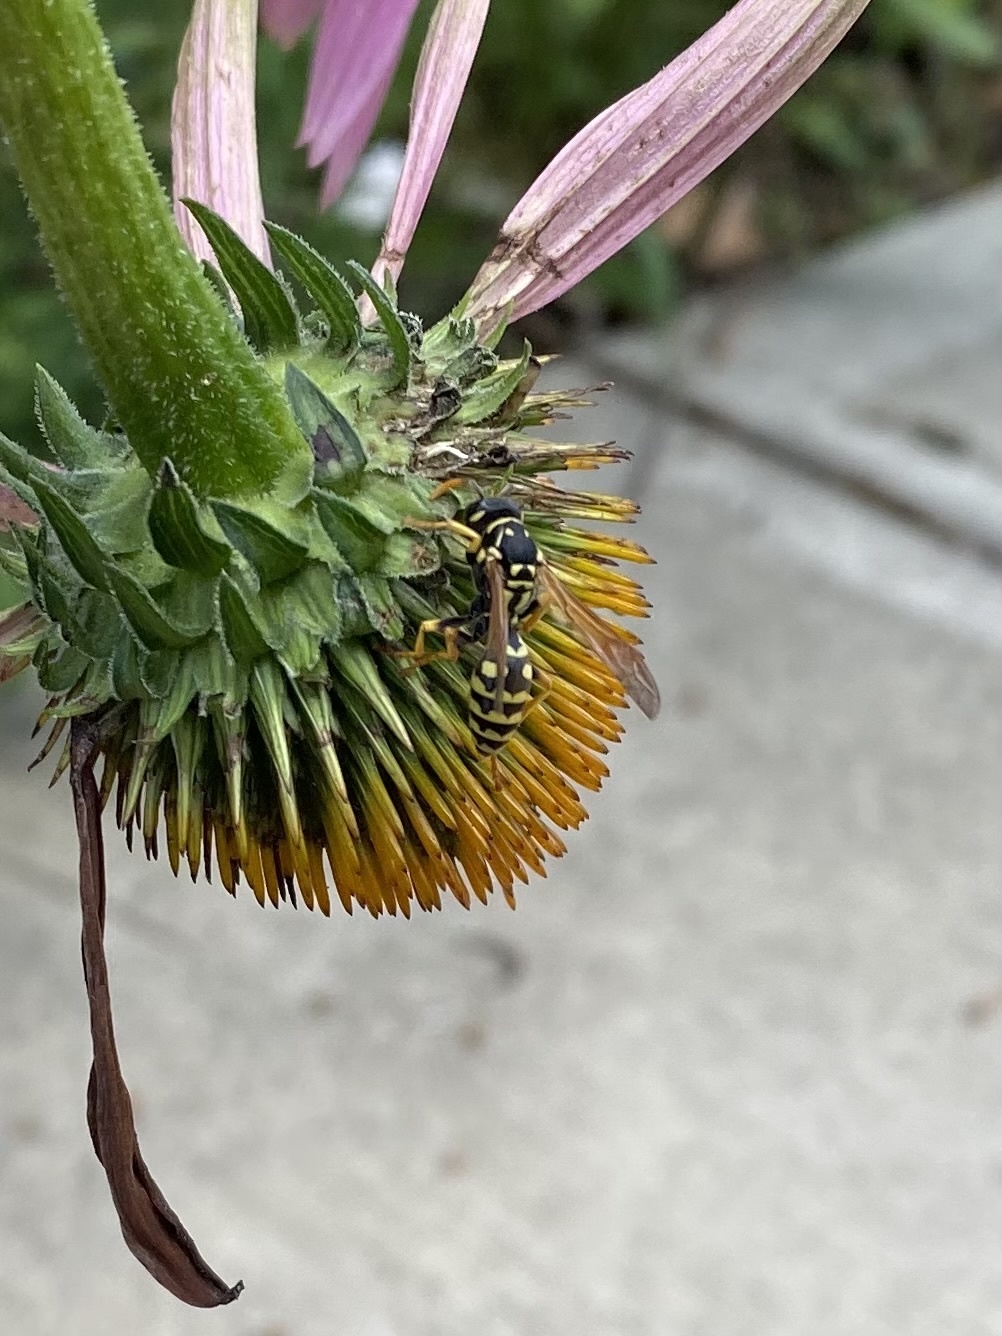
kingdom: Animalia
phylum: Arthropoda
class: Insecta
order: Hymenoptera
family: Eumenidae
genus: Polistes
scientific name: Polistes dominula
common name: Paper wasp
